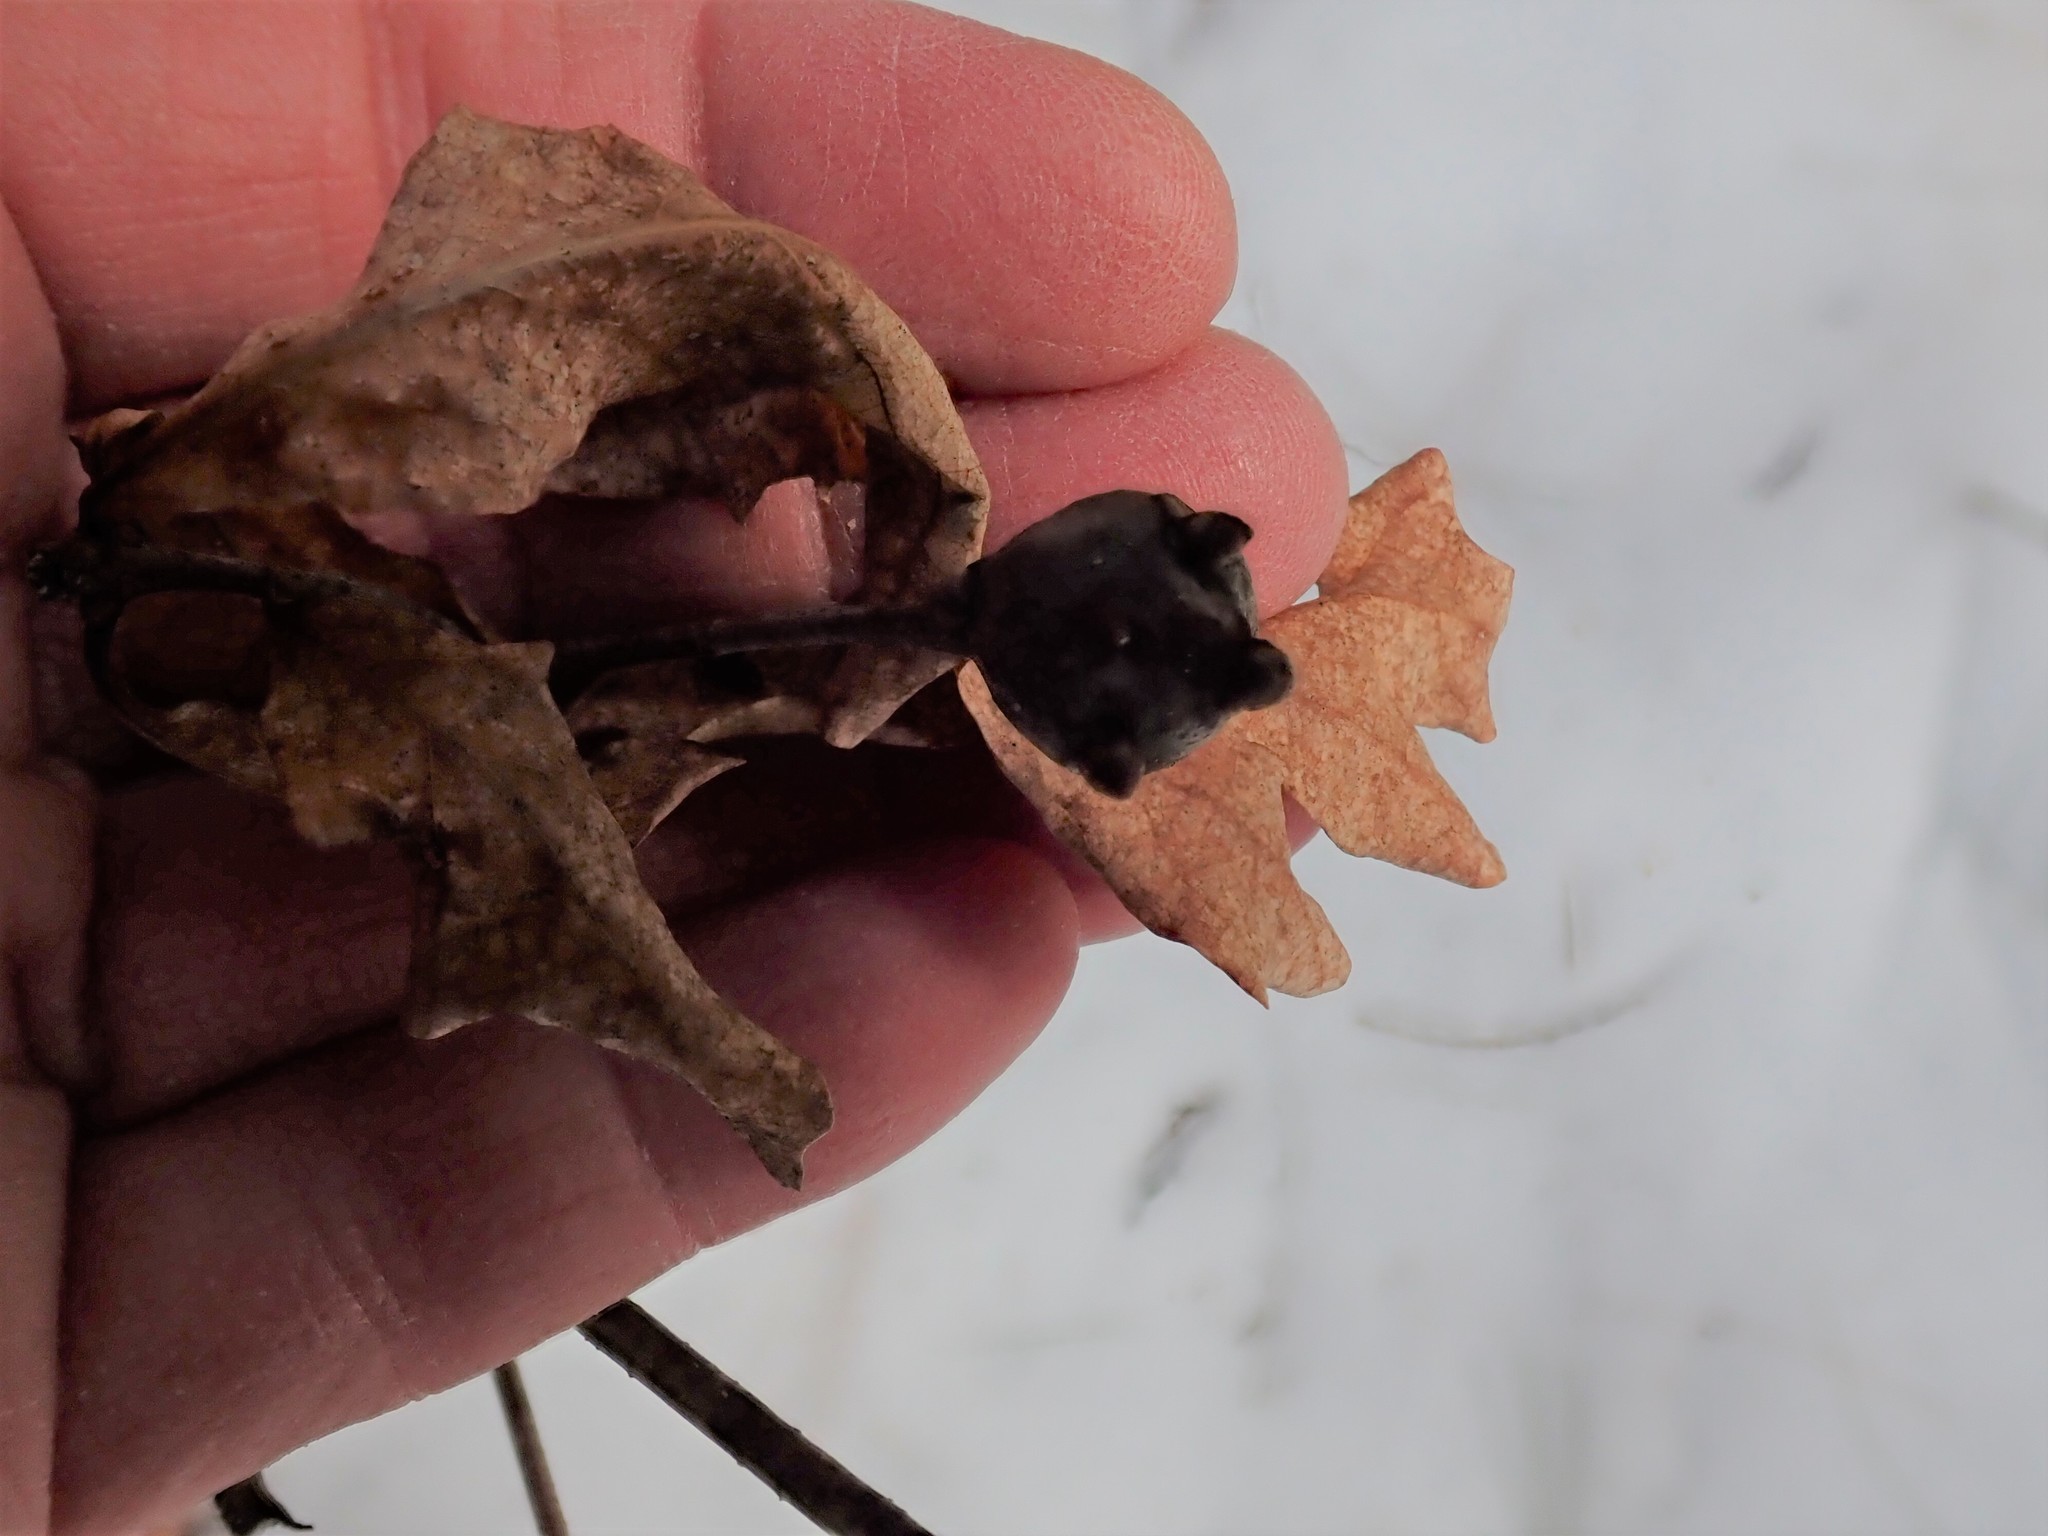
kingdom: Animalia
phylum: Arthropoda
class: Insecta
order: Hymenoptera
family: Cynipidae
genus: Callirhytis
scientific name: Callirhytis clavula
